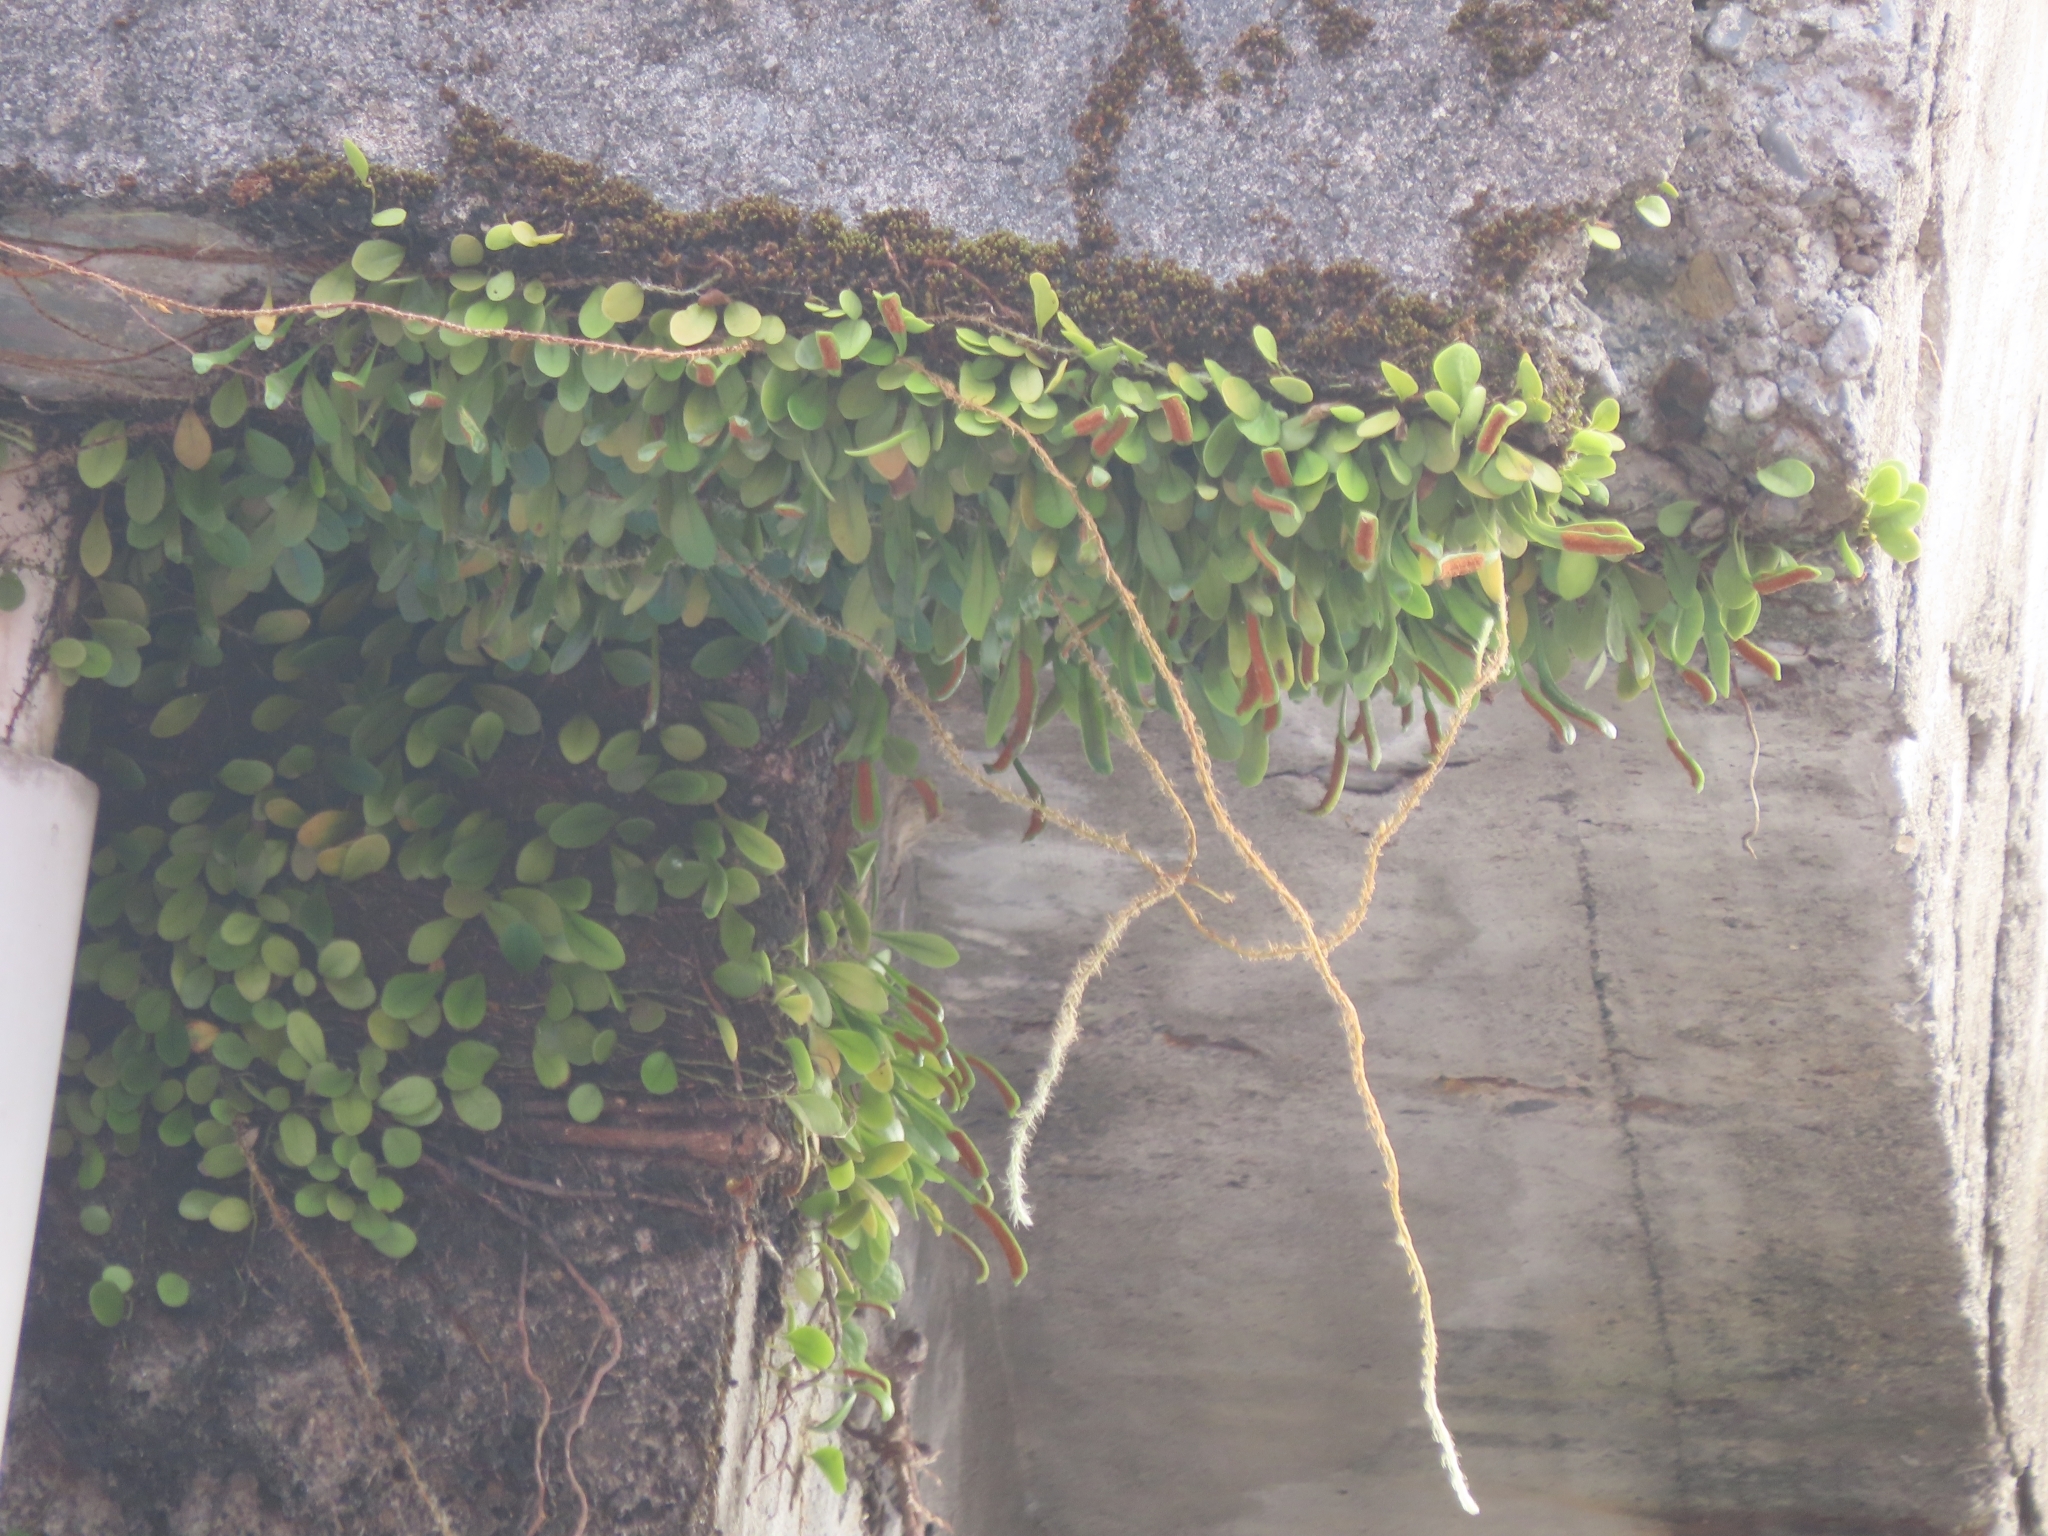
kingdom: Plantae
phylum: Tracheophyta
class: Polypodiopsida
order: Polypodiales
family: Polypodiaceae
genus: Lepisorus
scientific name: Lepisorus microphyllus
